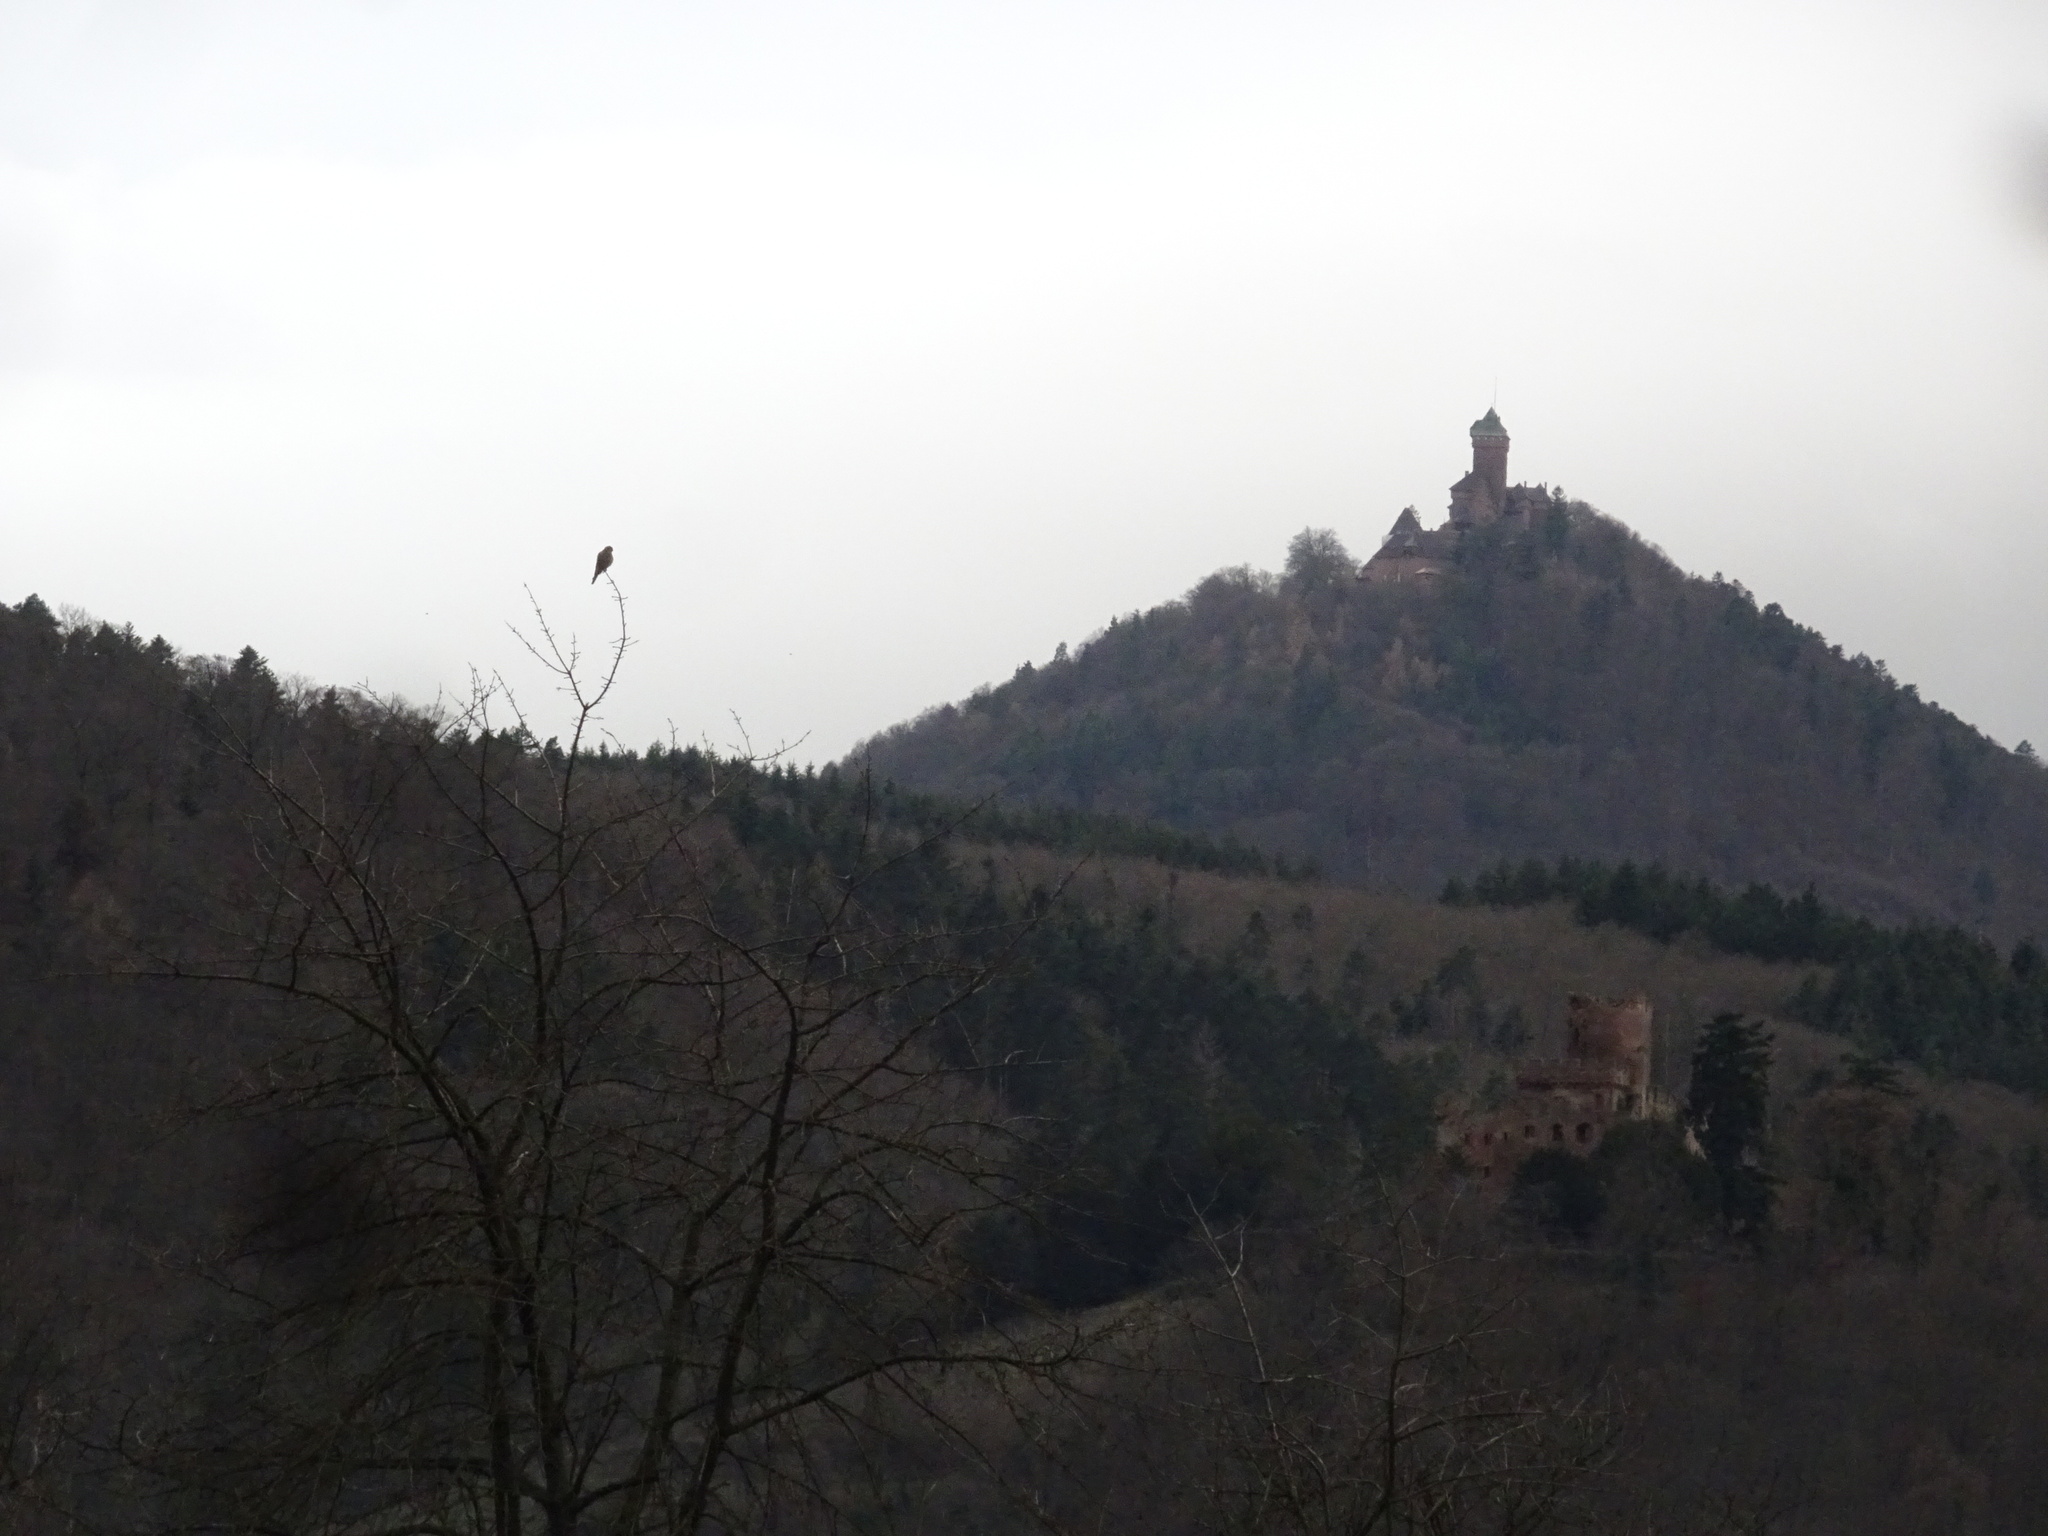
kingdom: Animalia
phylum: Chordata
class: Aves
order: Falconiformes
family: Falconidae
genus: Falco
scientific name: Falco tinnunculus
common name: Common kestrel
